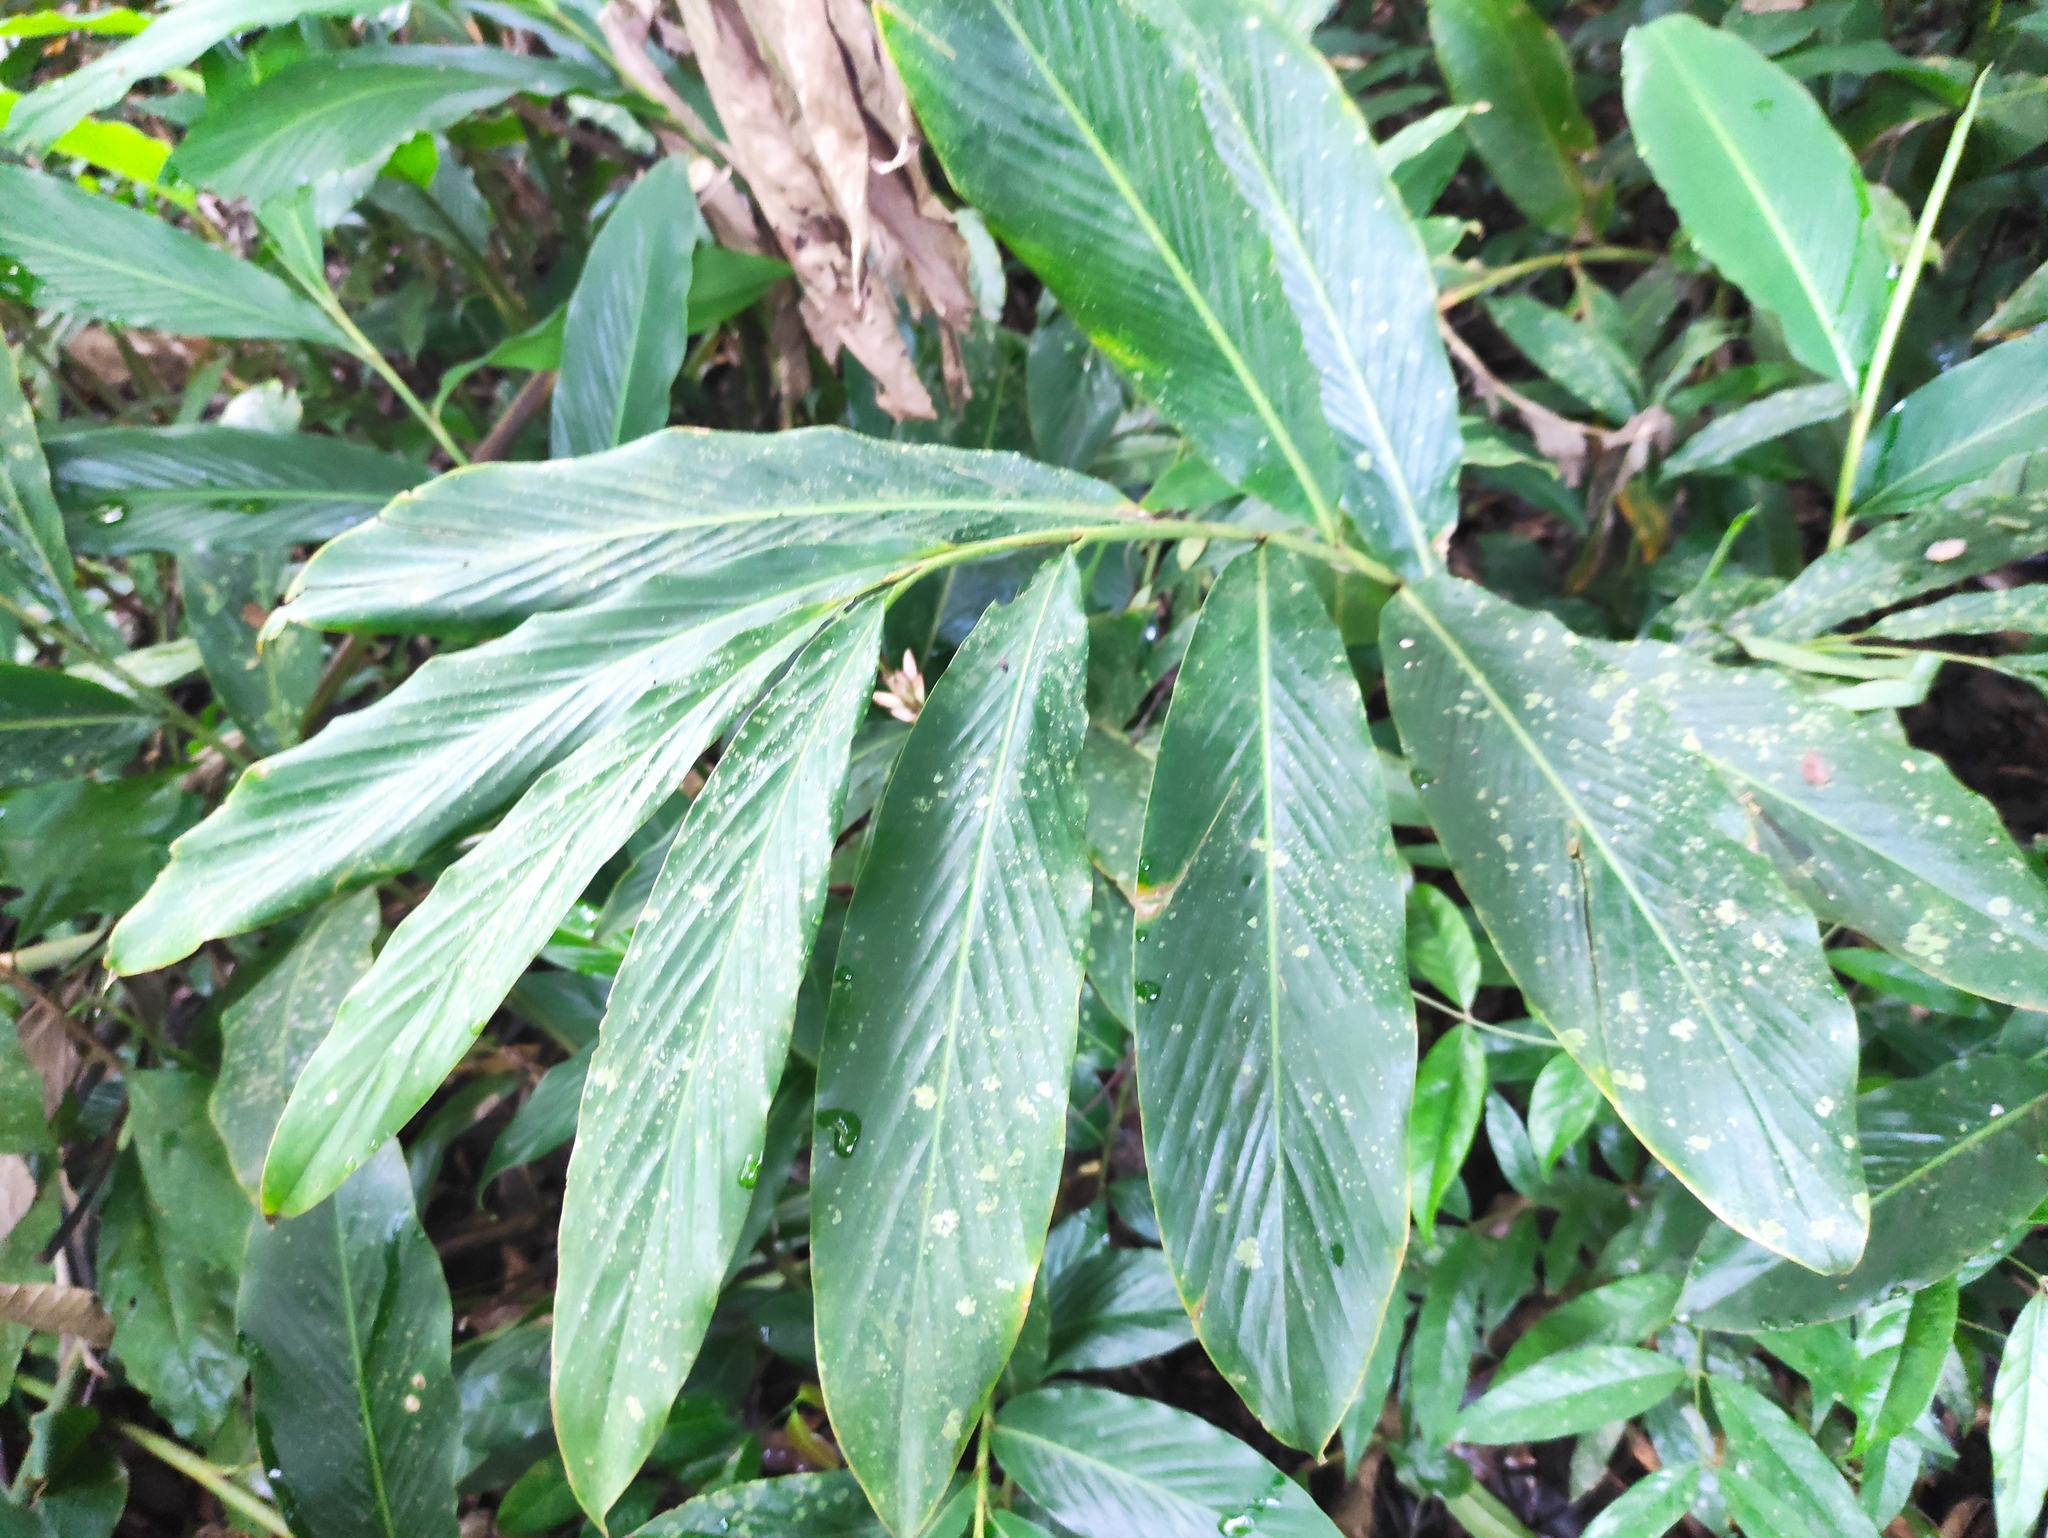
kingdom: Plantae
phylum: Tracheophyta
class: Liliopsida
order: Zingiberales
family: Zingiberaceae
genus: Alpinia
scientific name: Alpinia purpurata
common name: Red ginger
